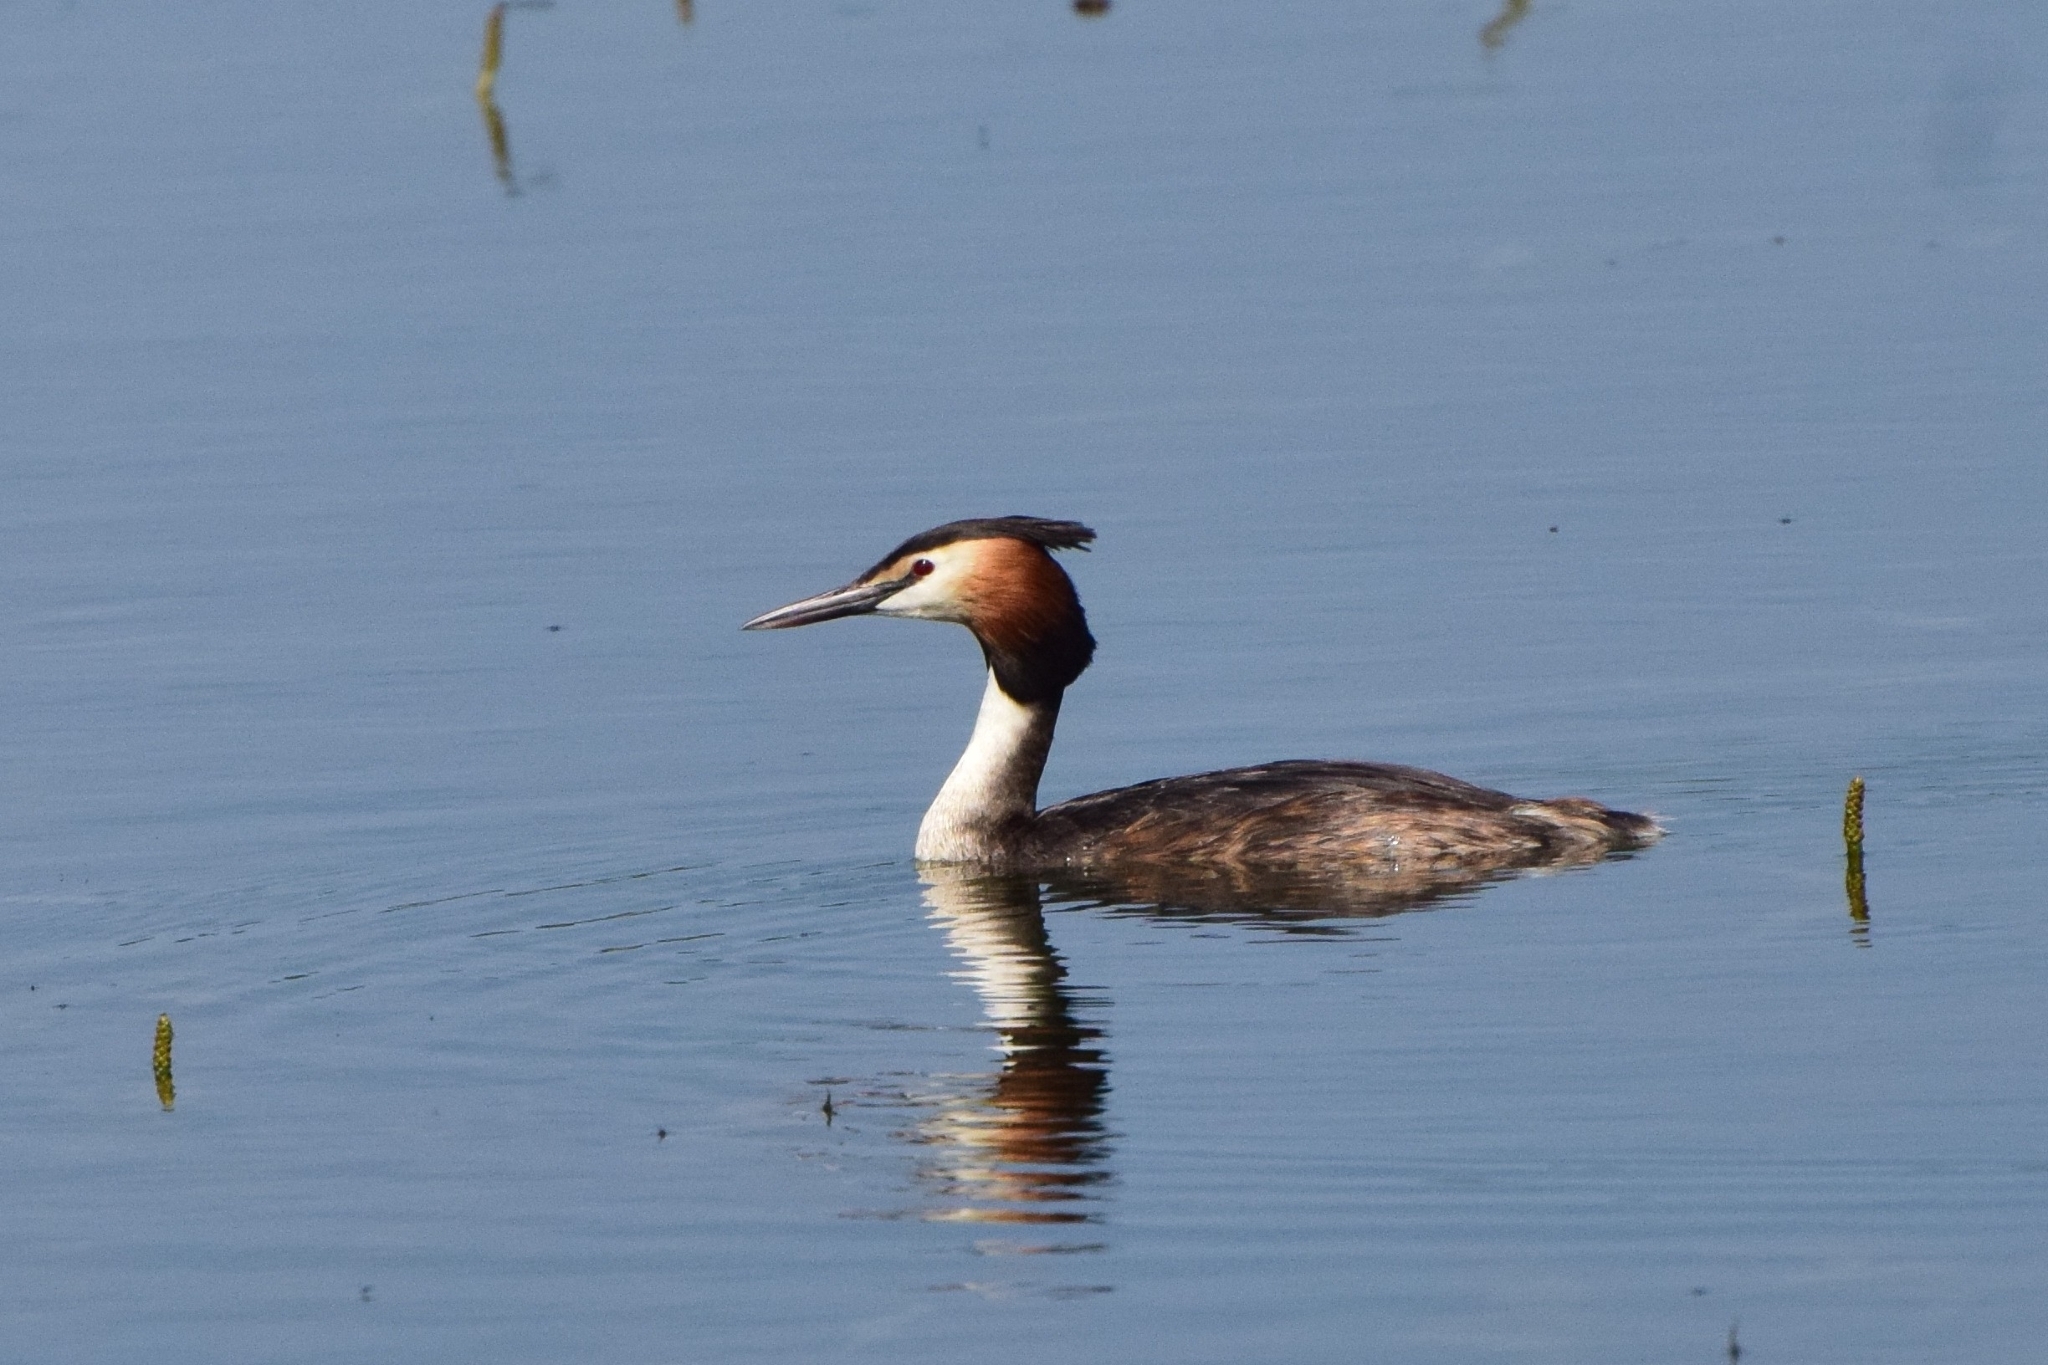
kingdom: Animalia
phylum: Chordata
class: Aves
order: Podicipediformes
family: Podicipedidae
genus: Podiceps
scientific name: Podiceps cristatus
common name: Great crested grebe
